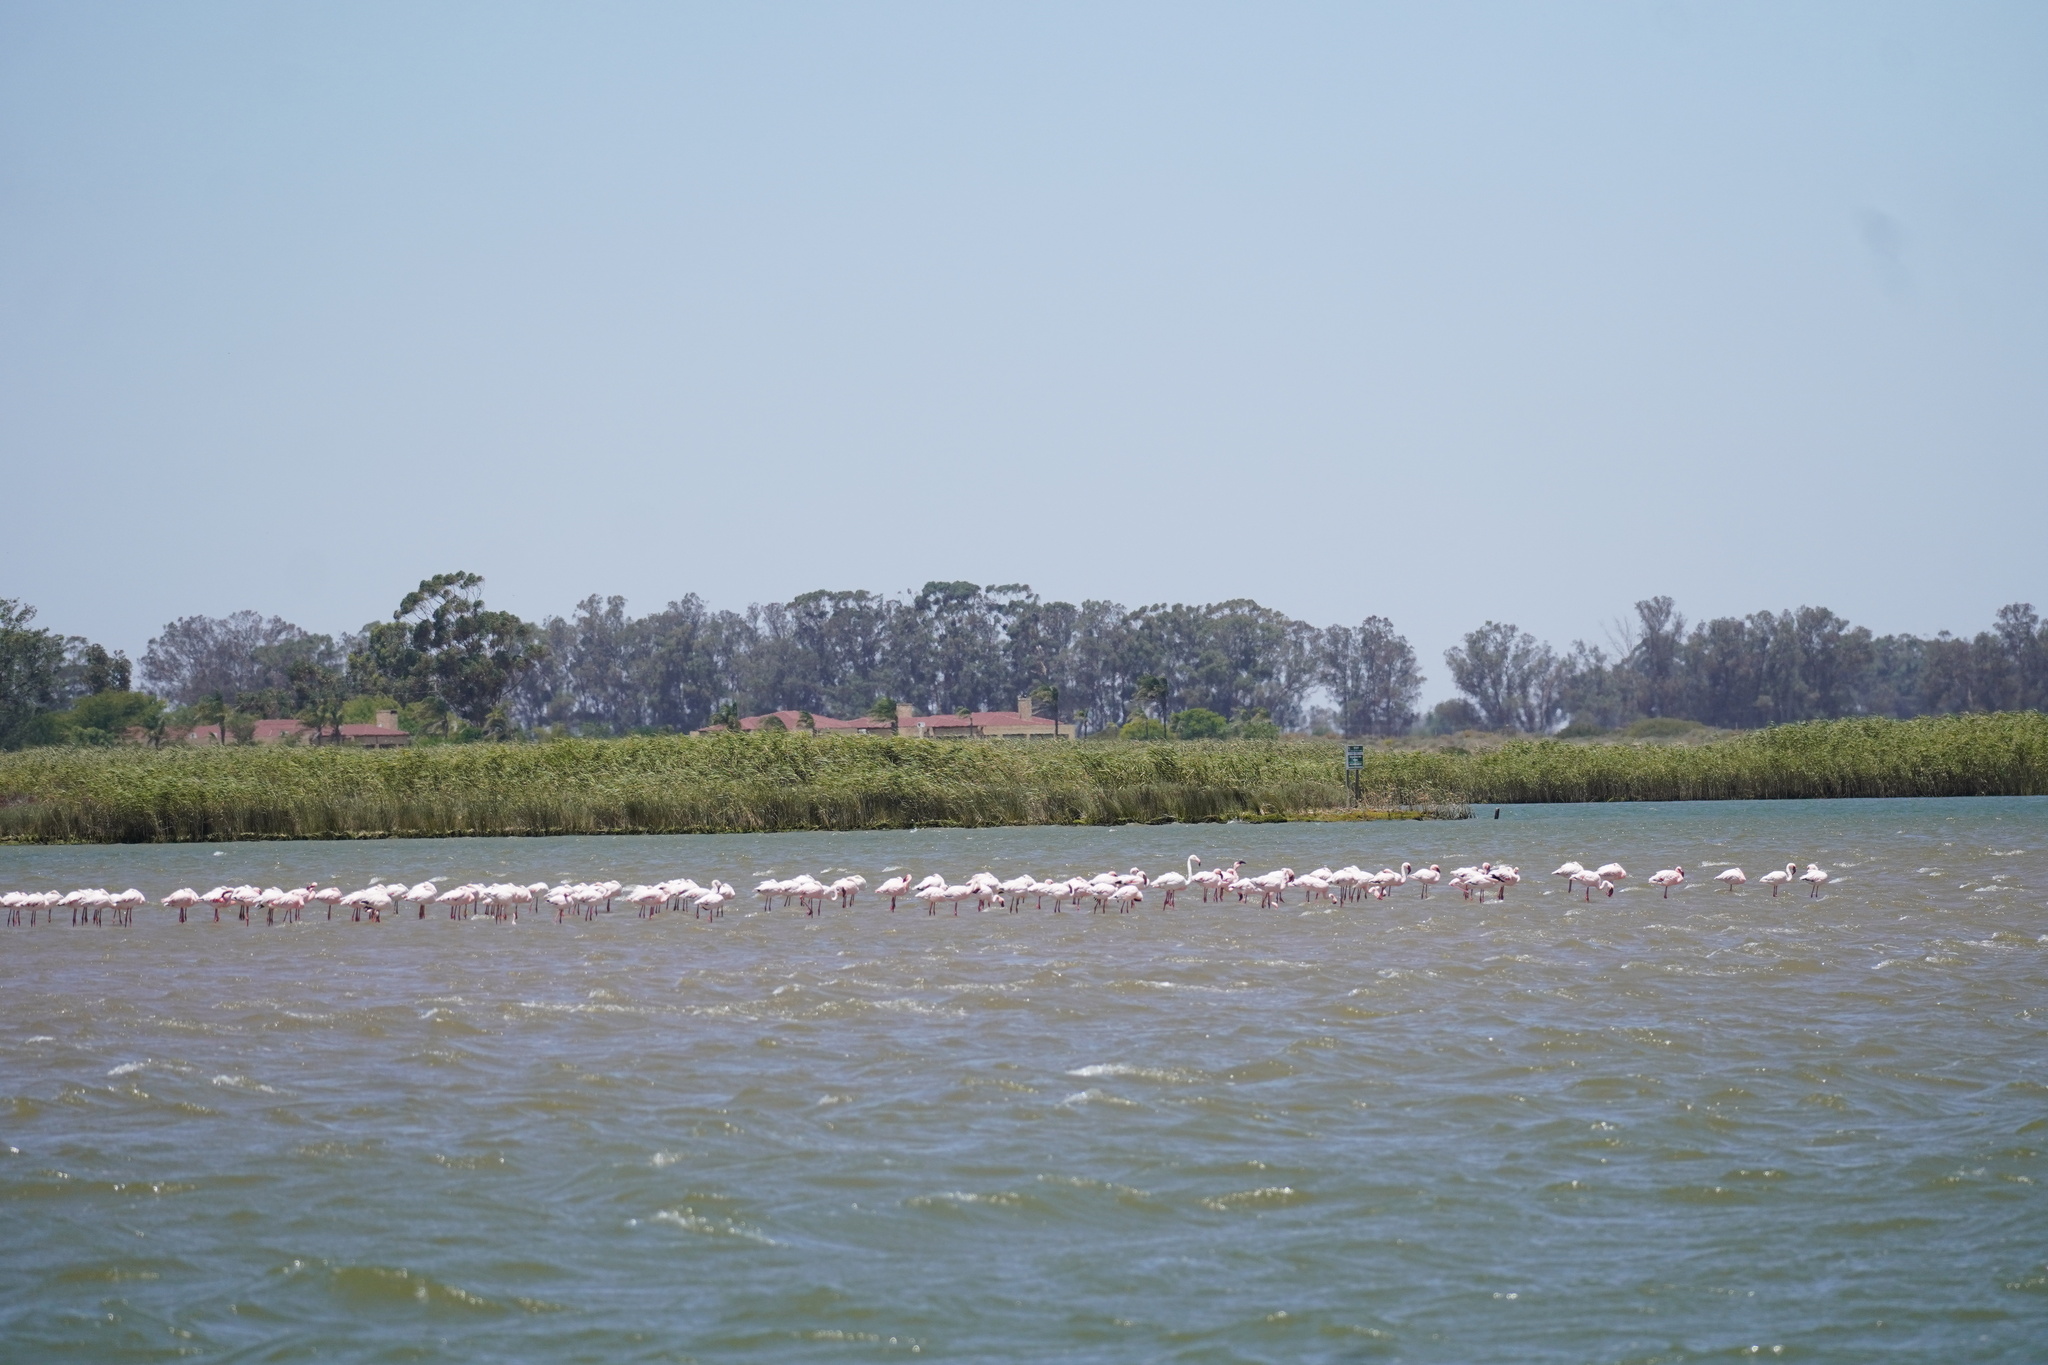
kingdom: Animalia
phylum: Chordata
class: Aves
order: Phoenicopteriformes
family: Phoenicopteridae
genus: Phoeniconaias
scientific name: Phoeniconaias minor
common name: Lesser flamingo
